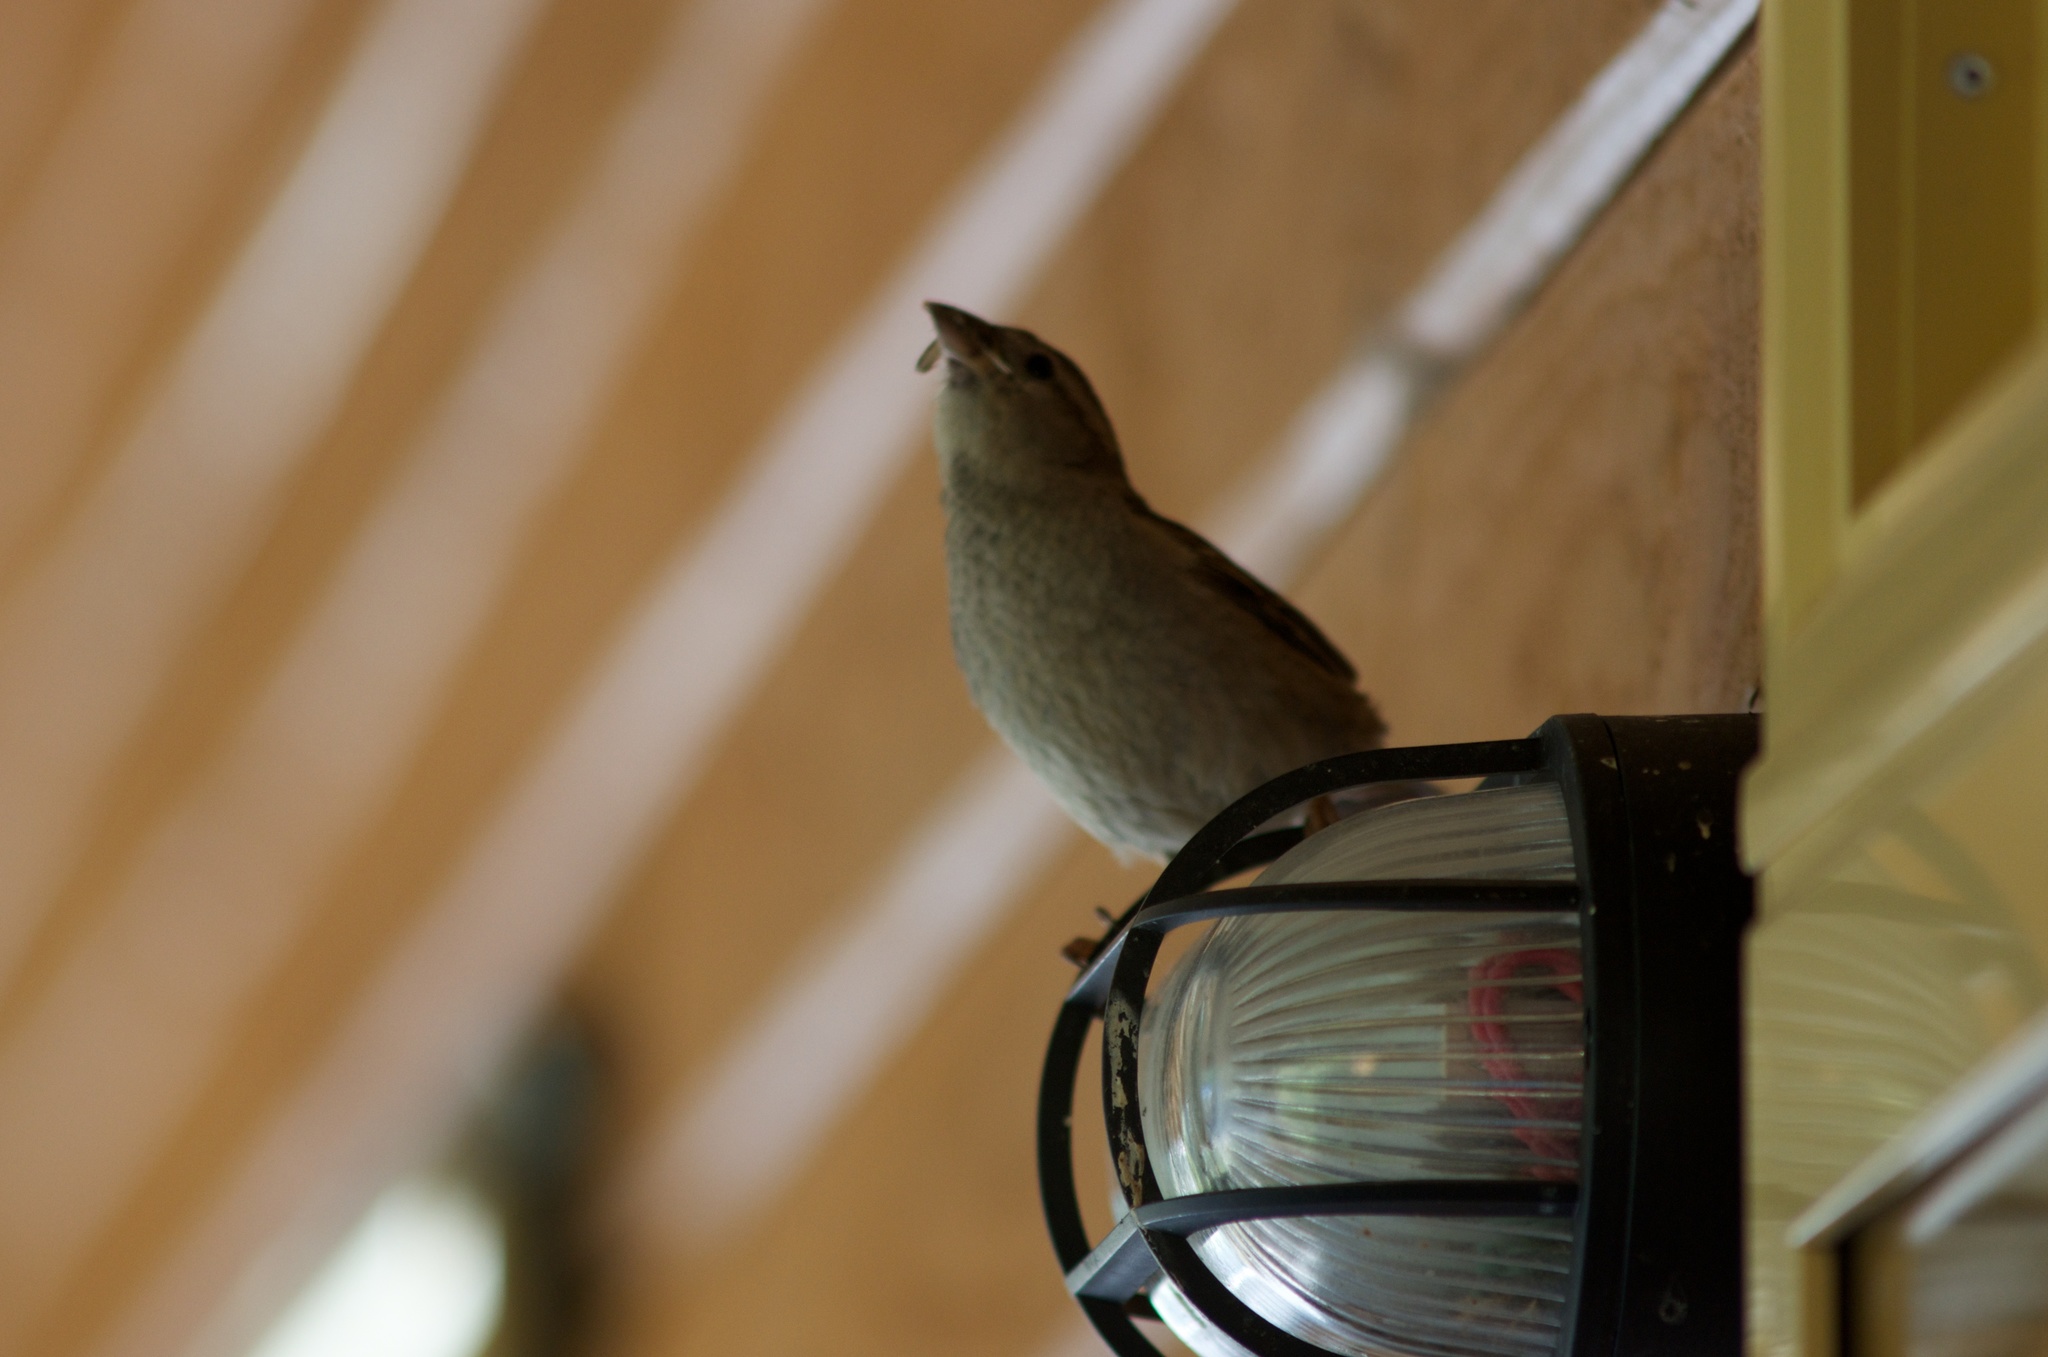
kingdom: Animalia
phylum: Chordata
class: Aves
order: Passeriformes
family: Passeridae
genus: Passer
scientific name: Passer domesticus
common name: House sparrow
